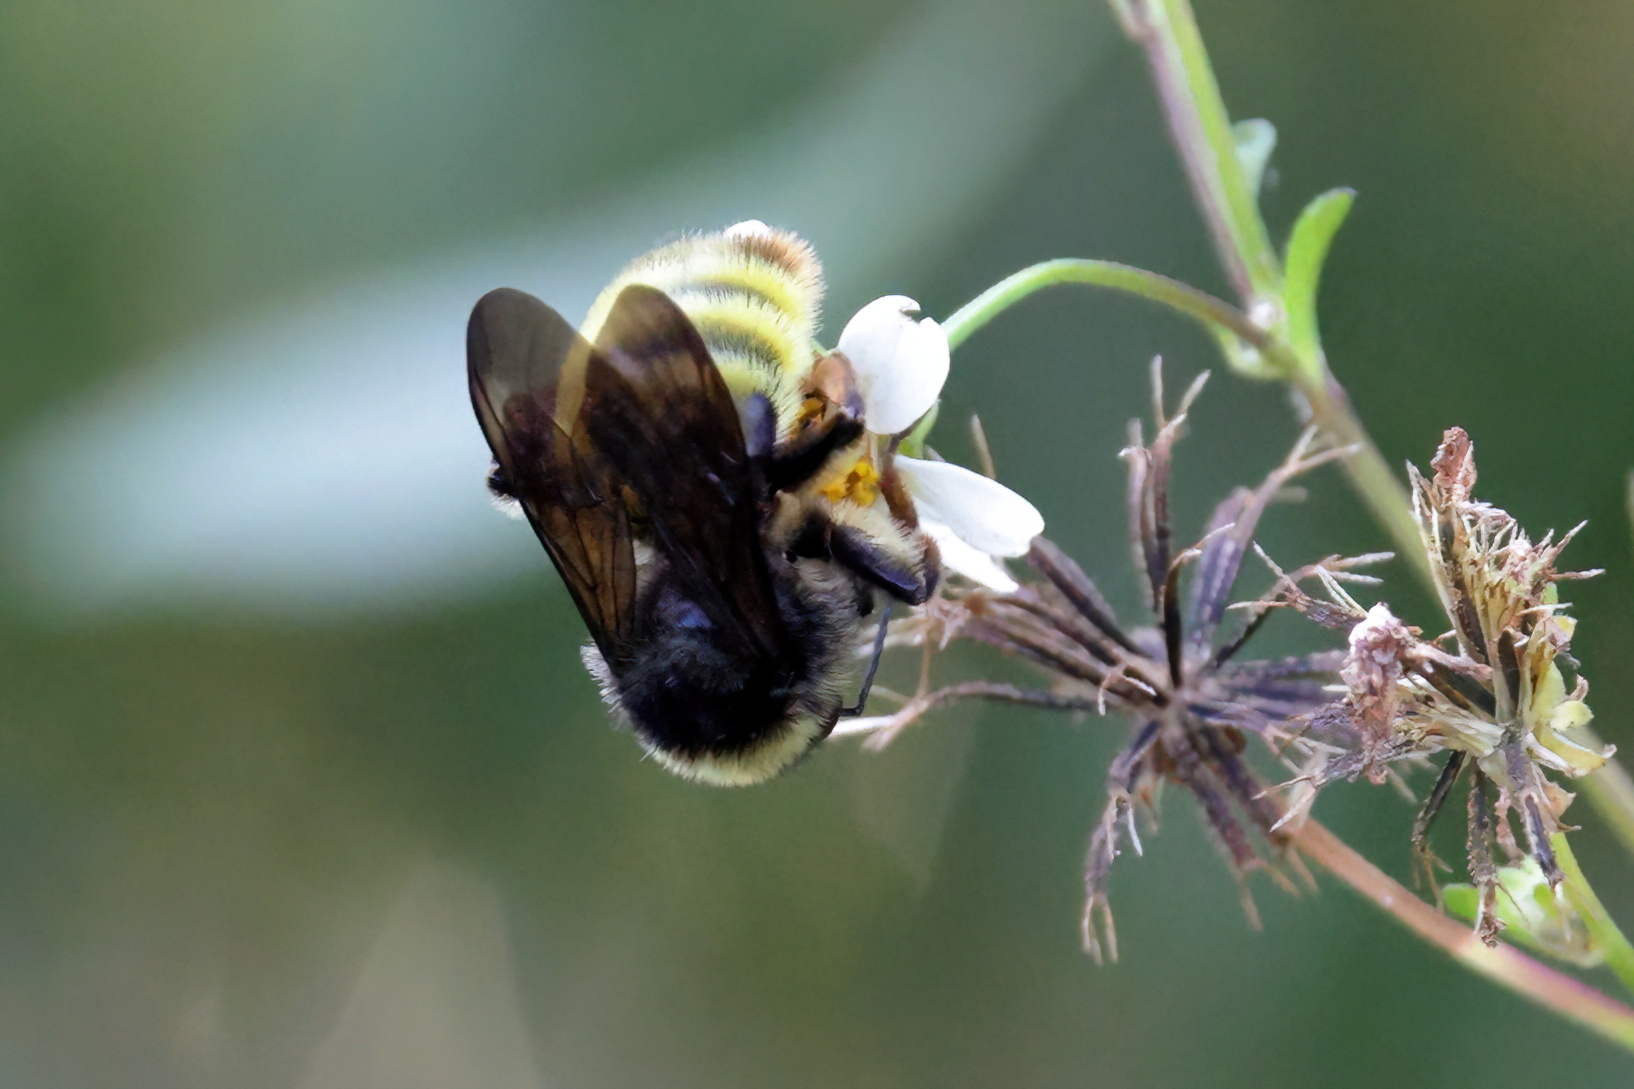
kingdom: Animalia
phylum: Arthropoda
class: Insecta
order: Hymenoptera
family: Apidae
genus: Bombus
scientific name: Bombus pensylvanicus
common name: Bumble bee
